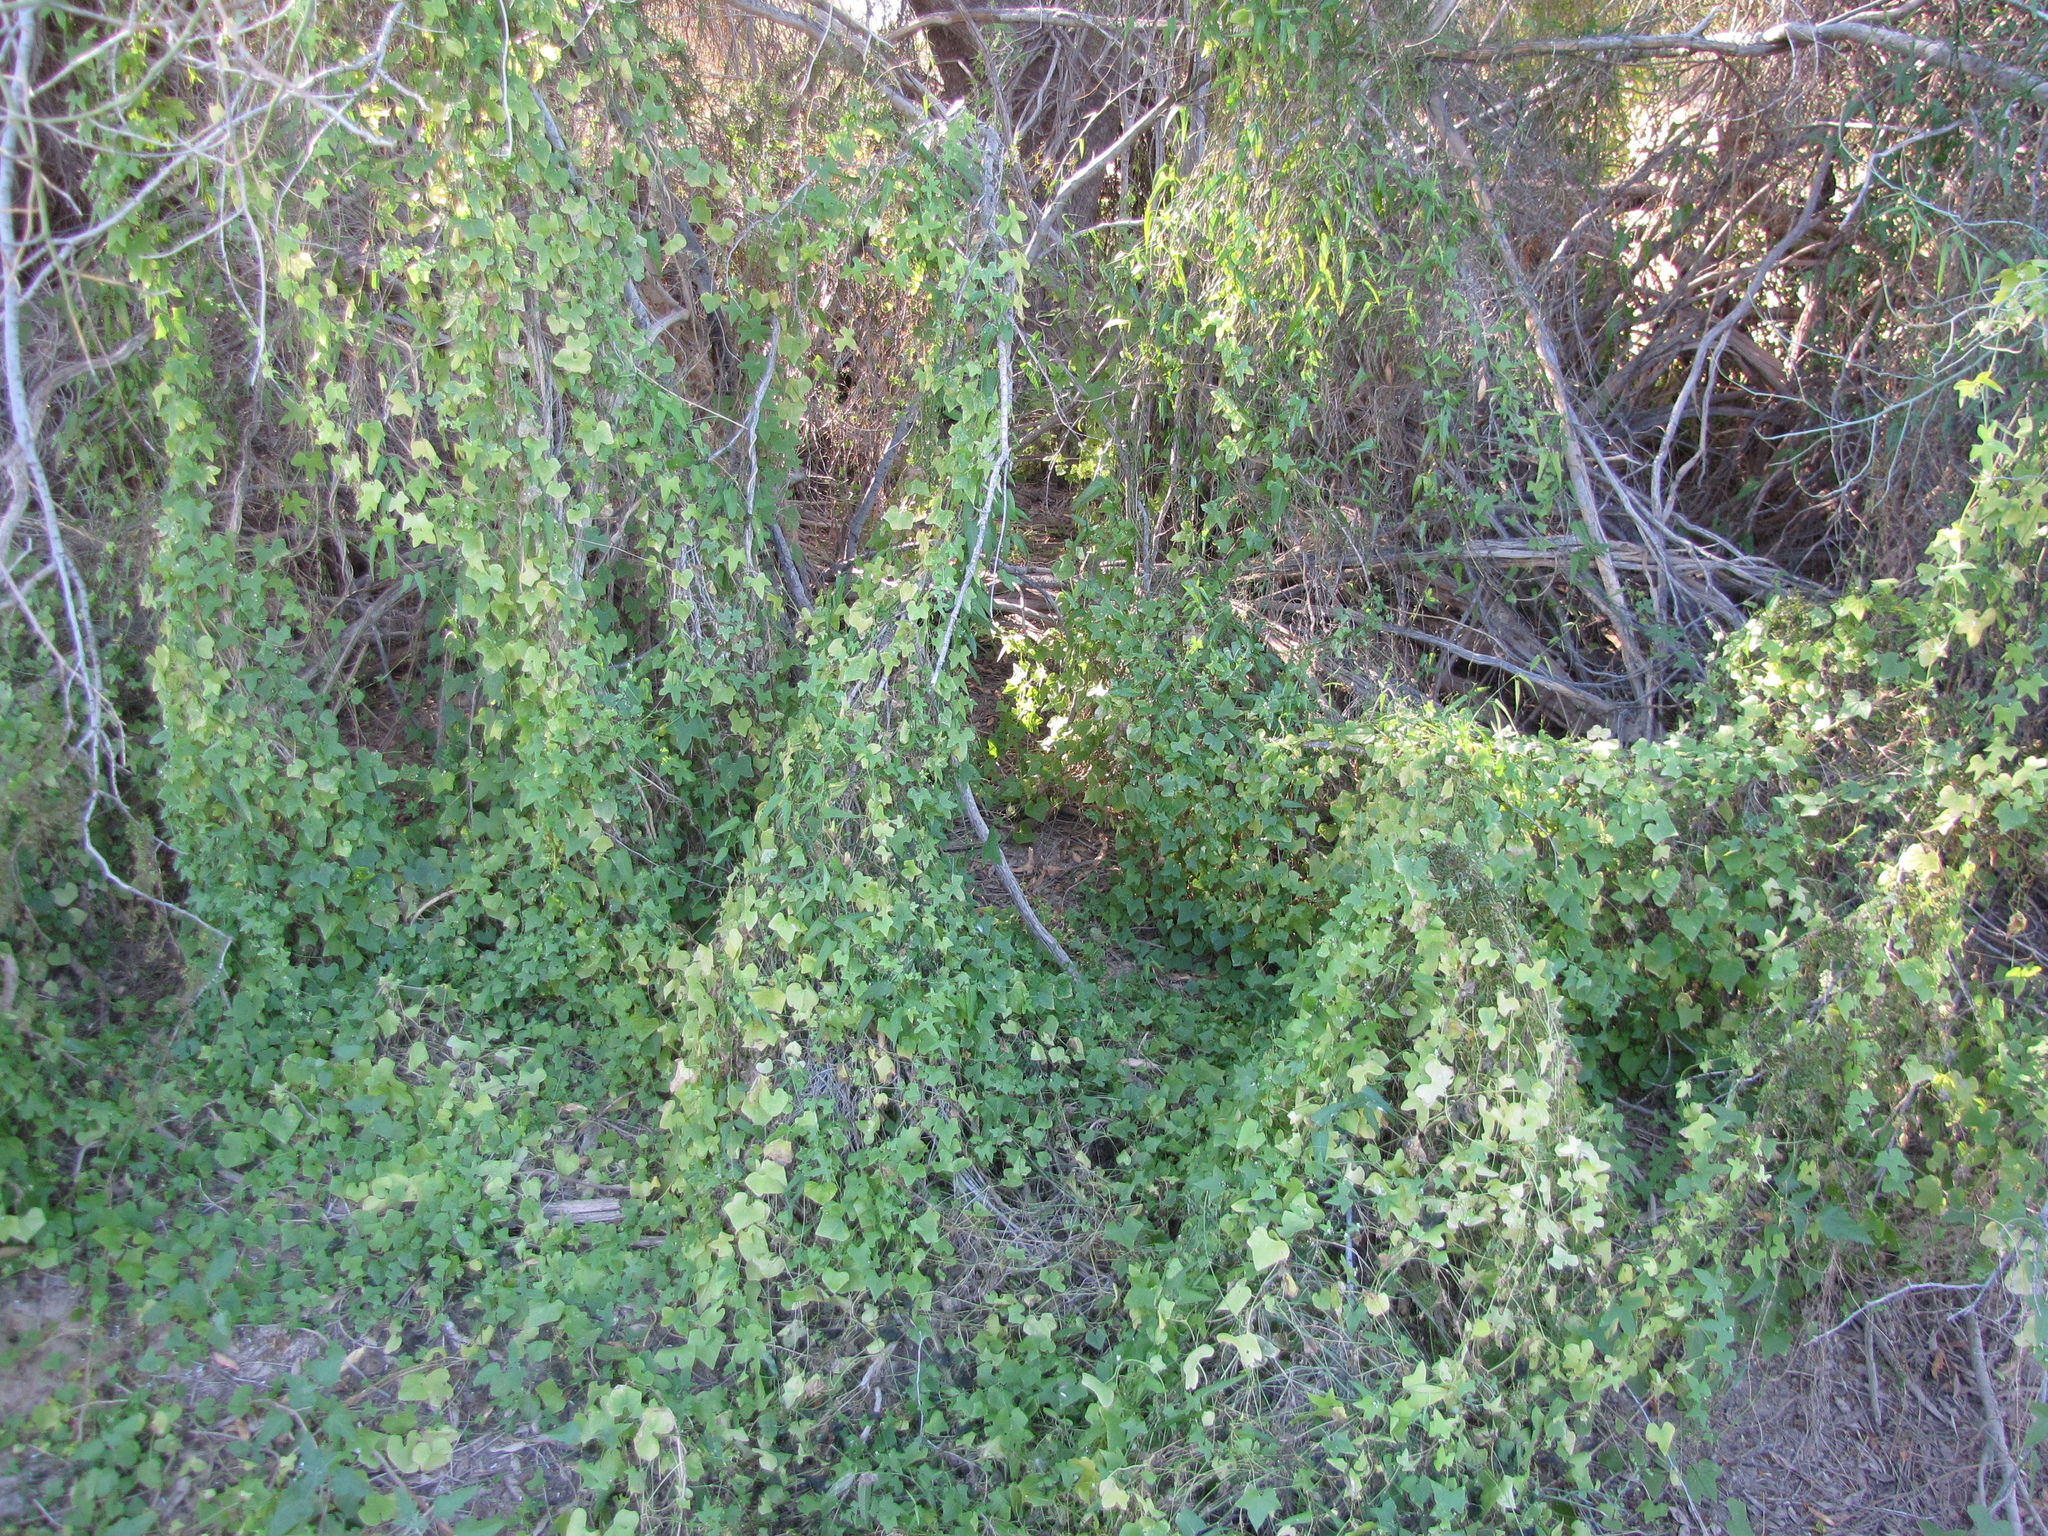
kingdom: Plantae
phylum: Tracheophyta
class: Magnoliopsida
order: Cucurbitales
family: Cucurbitaceae
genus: Echinopepon
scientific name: Echinopepon bigelovii
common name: Desert starvine
